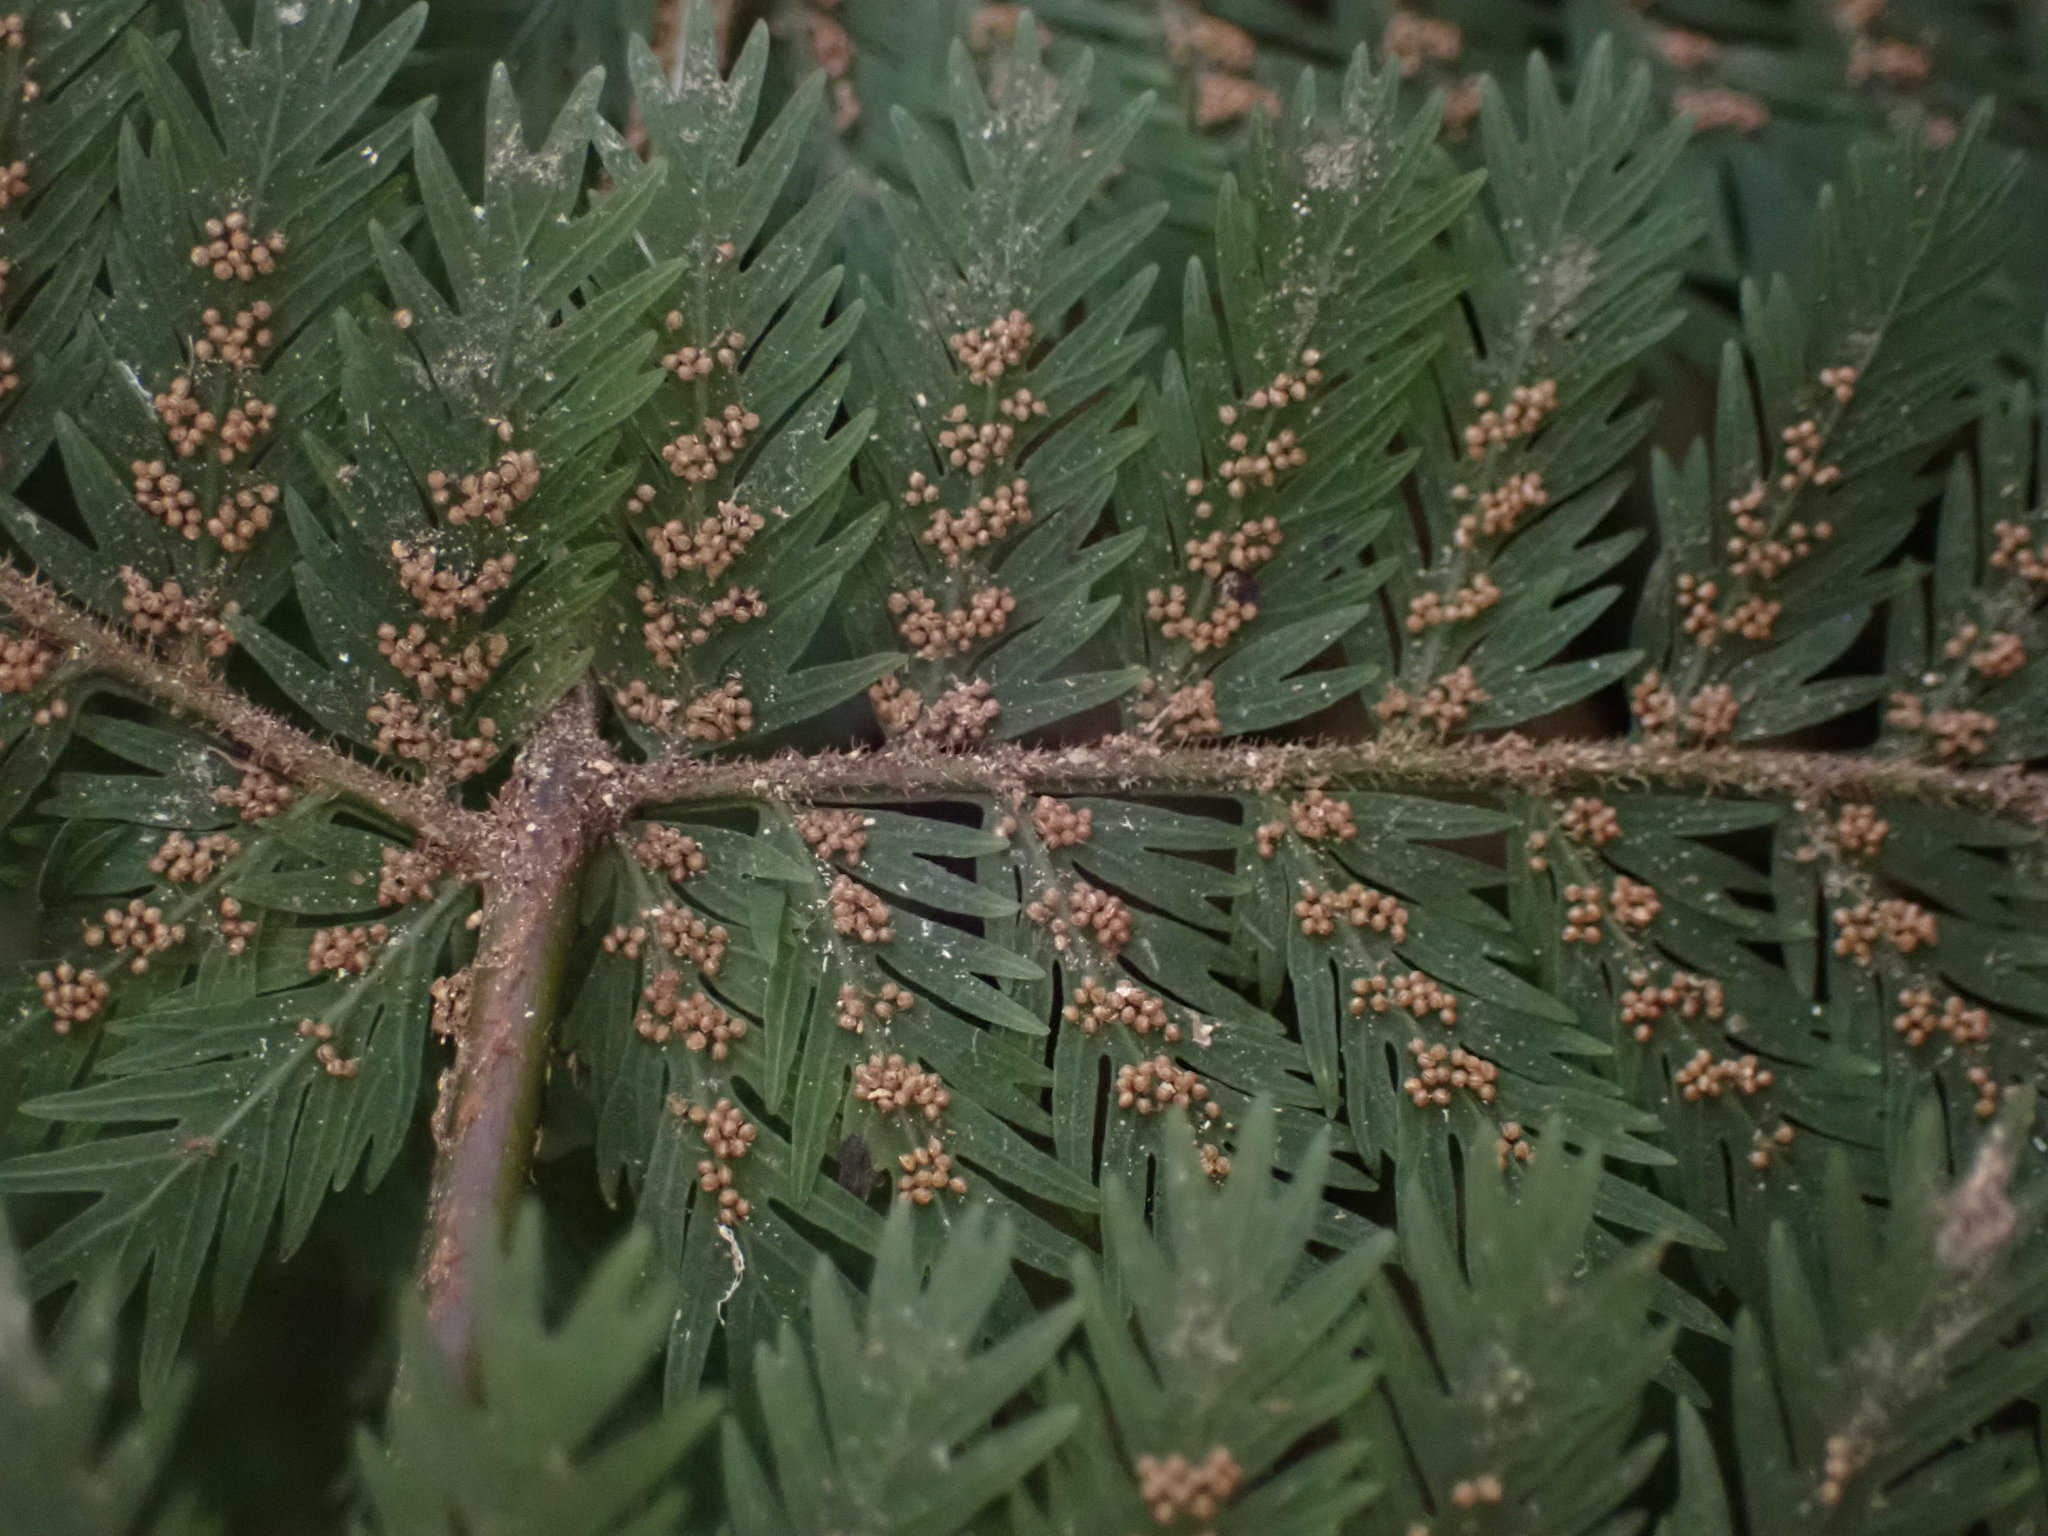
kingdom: Plantae
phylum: Tracheophyta
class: Polypodiopsida
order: Osmundales
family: Osmundaceae
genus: Leptopteris
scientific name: Leptopteris hymenophylloides
